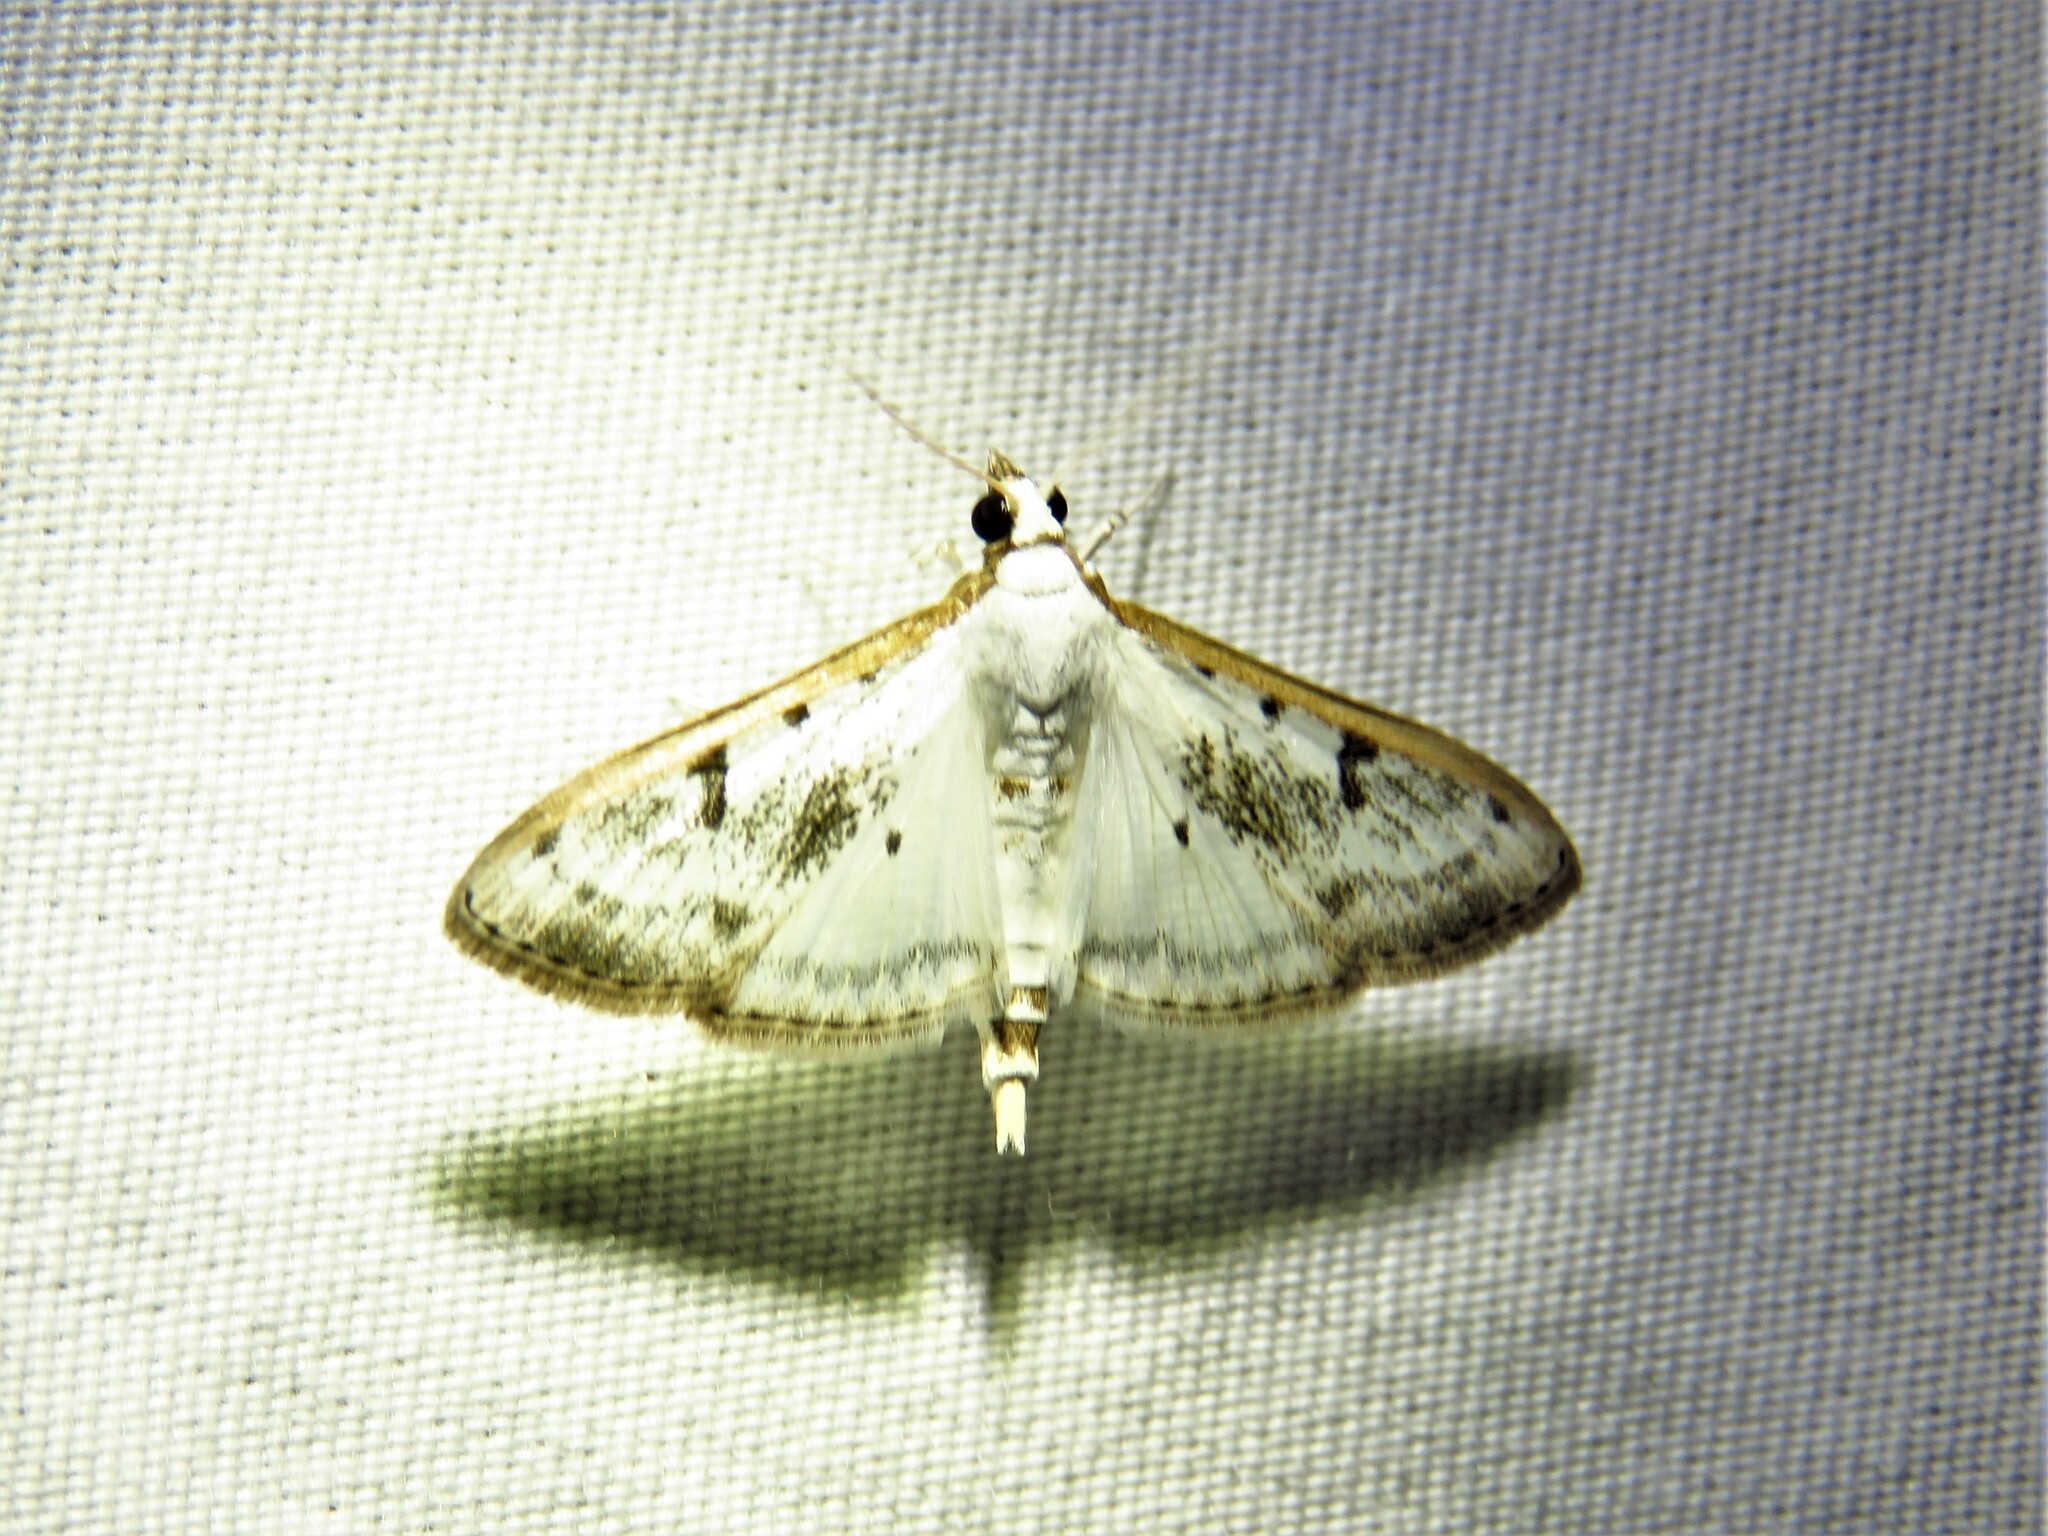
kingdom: Animalia
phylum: Arthropoda
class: Insecta
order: Lepidoptera
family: Crambidae
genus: Palpita
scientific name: Palpita gracilalis
